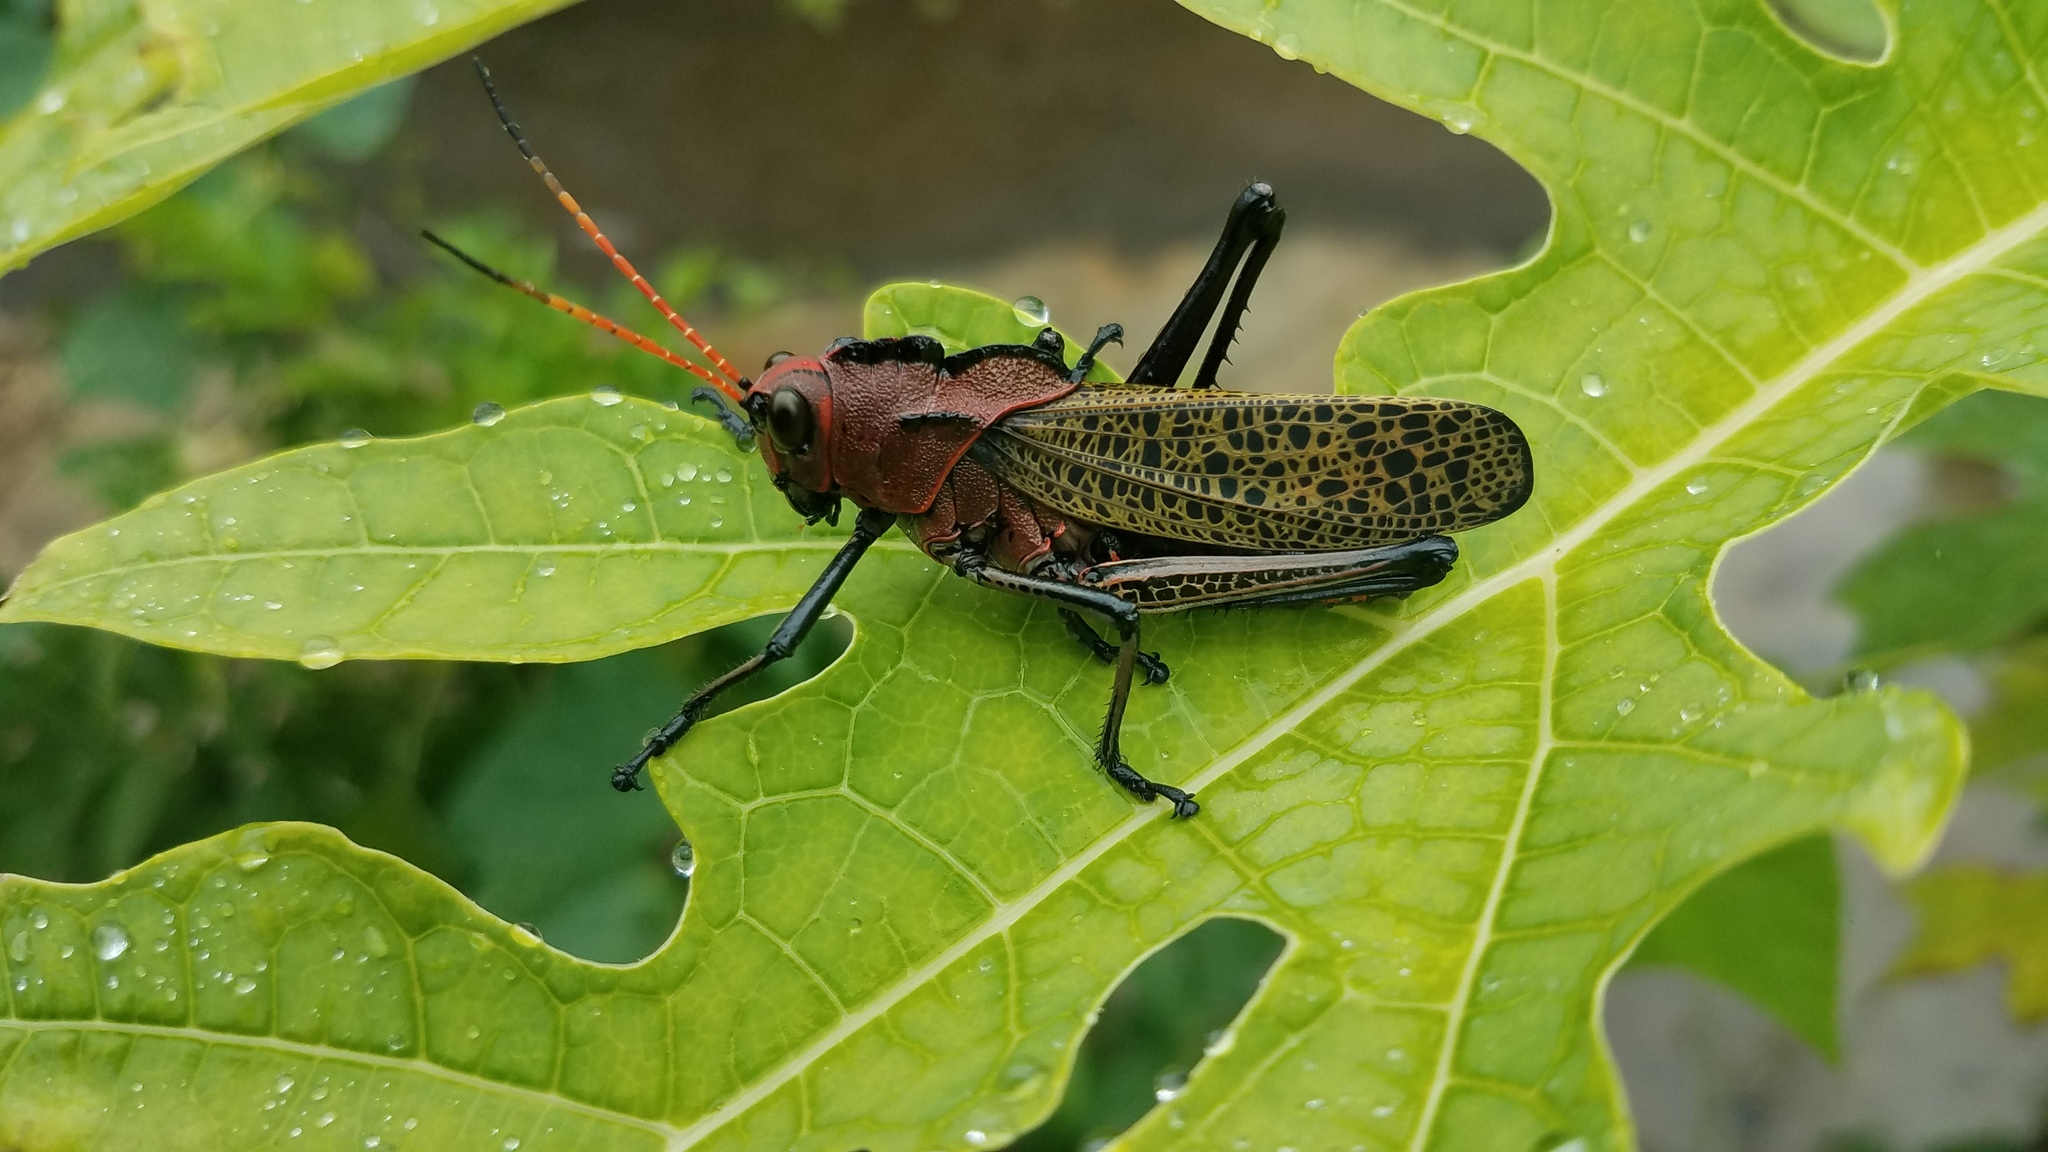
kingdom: Animalia
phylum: Arthropoda
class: Insecta
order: Orthoptera
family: Romaleidae
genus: Romalea
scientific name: Romalea
